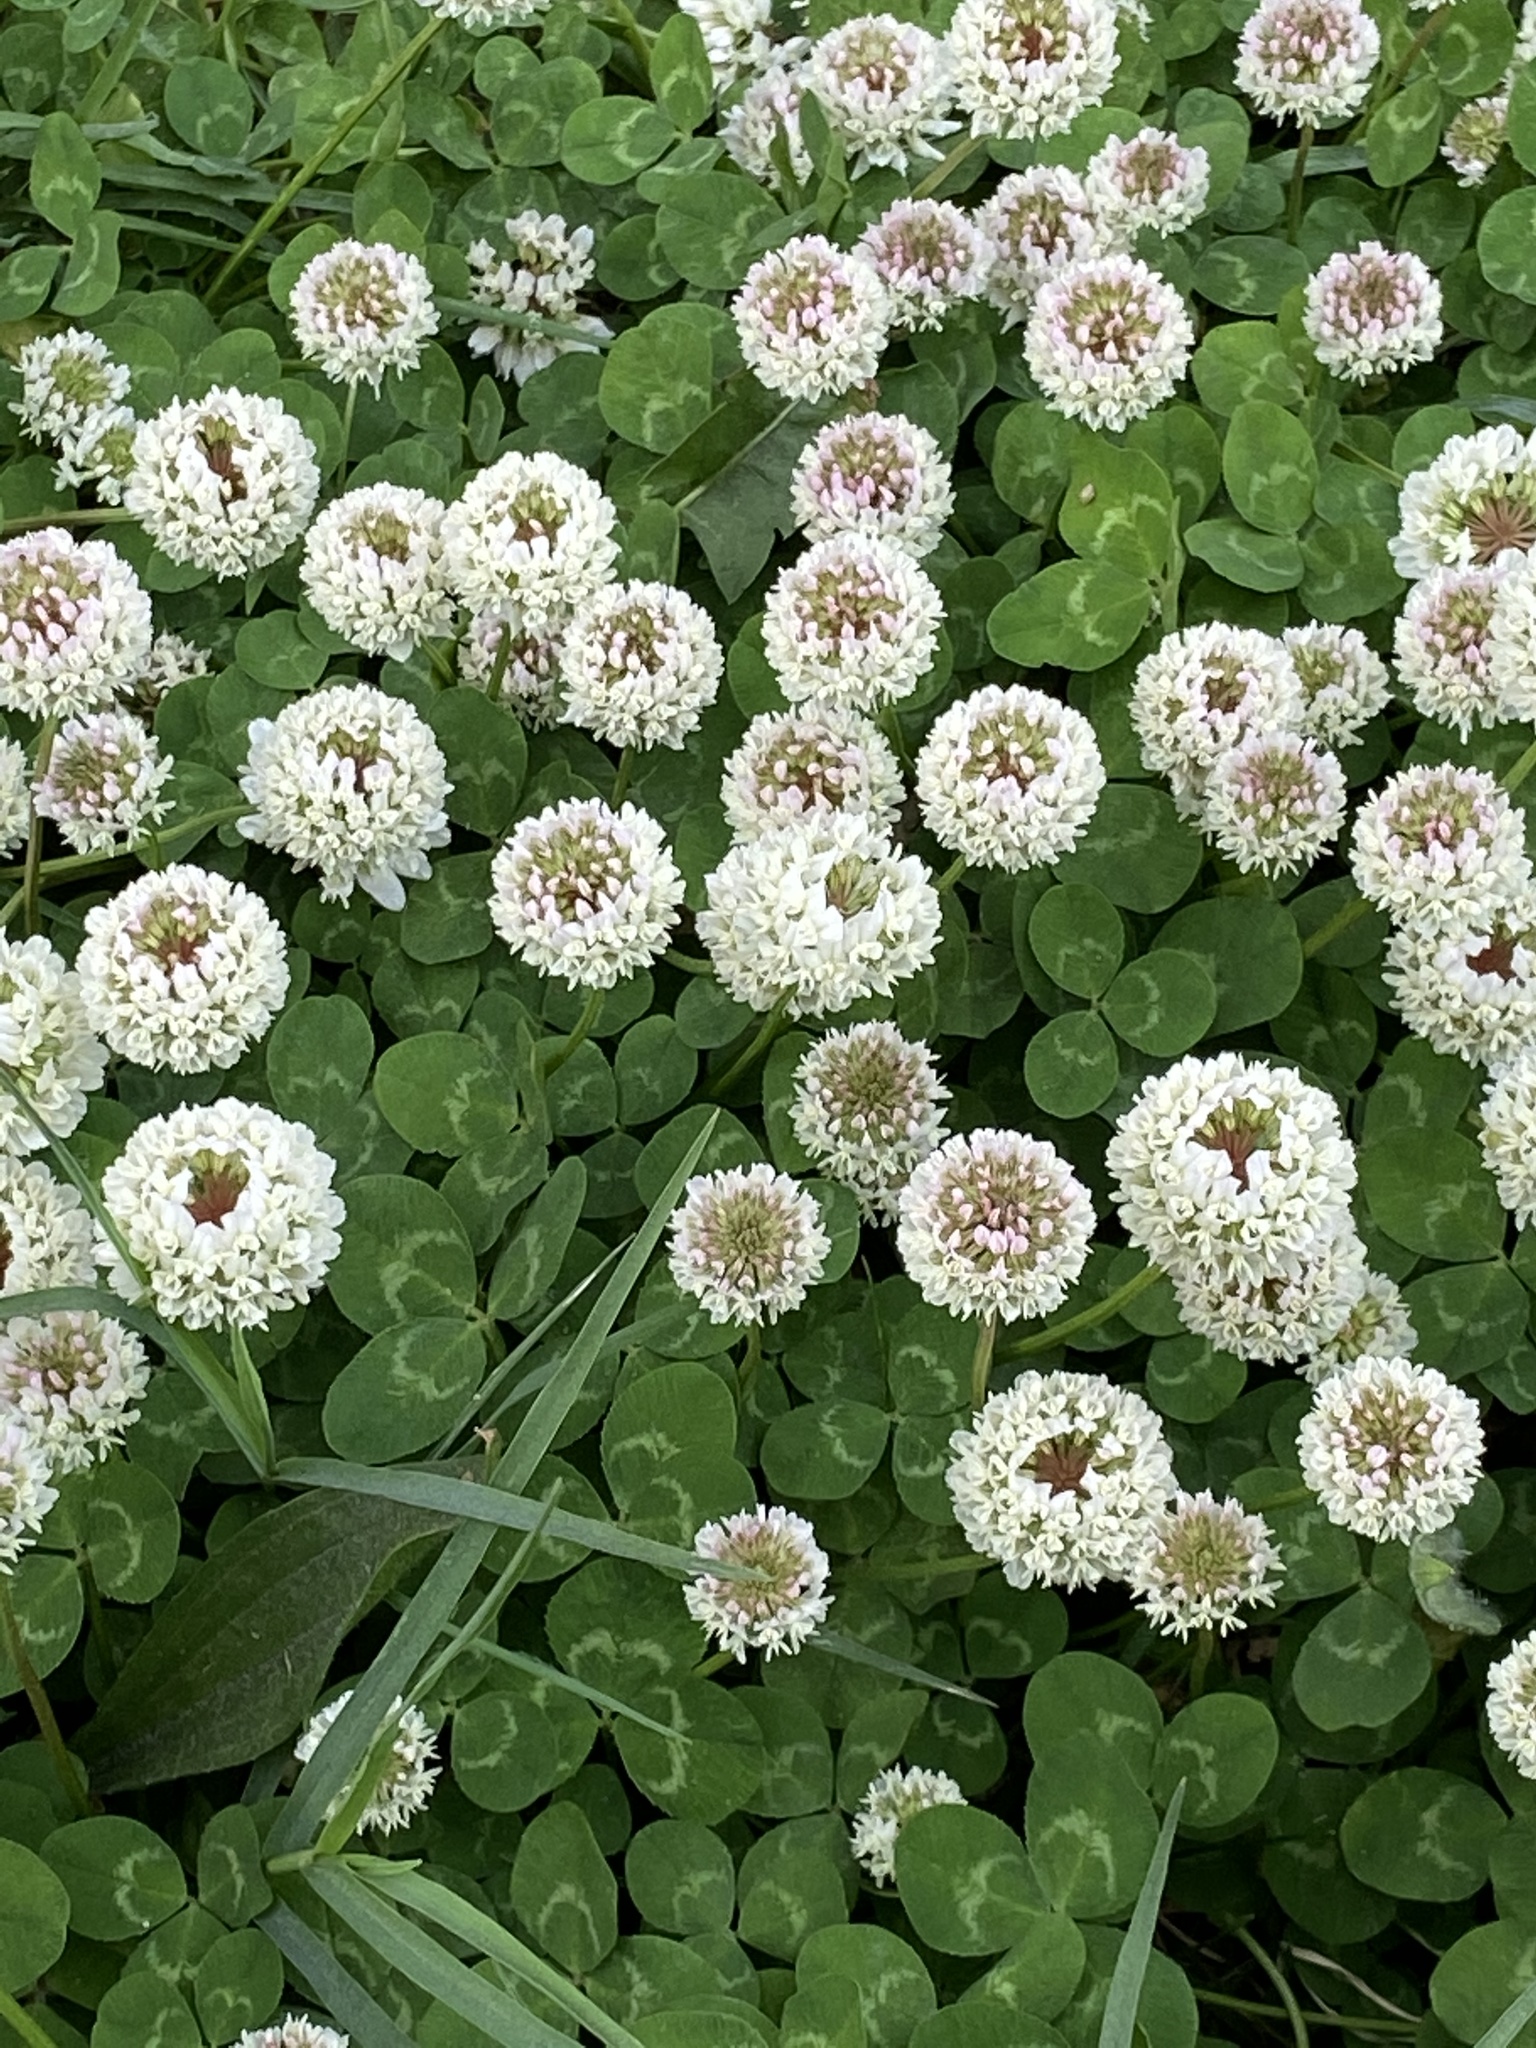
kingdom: Plantae
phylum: Tracheophyta
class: Magnoliopsida
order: Fabales
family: Fabaceae
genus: Trifolium
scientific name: Trifolium repens
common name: White clover
